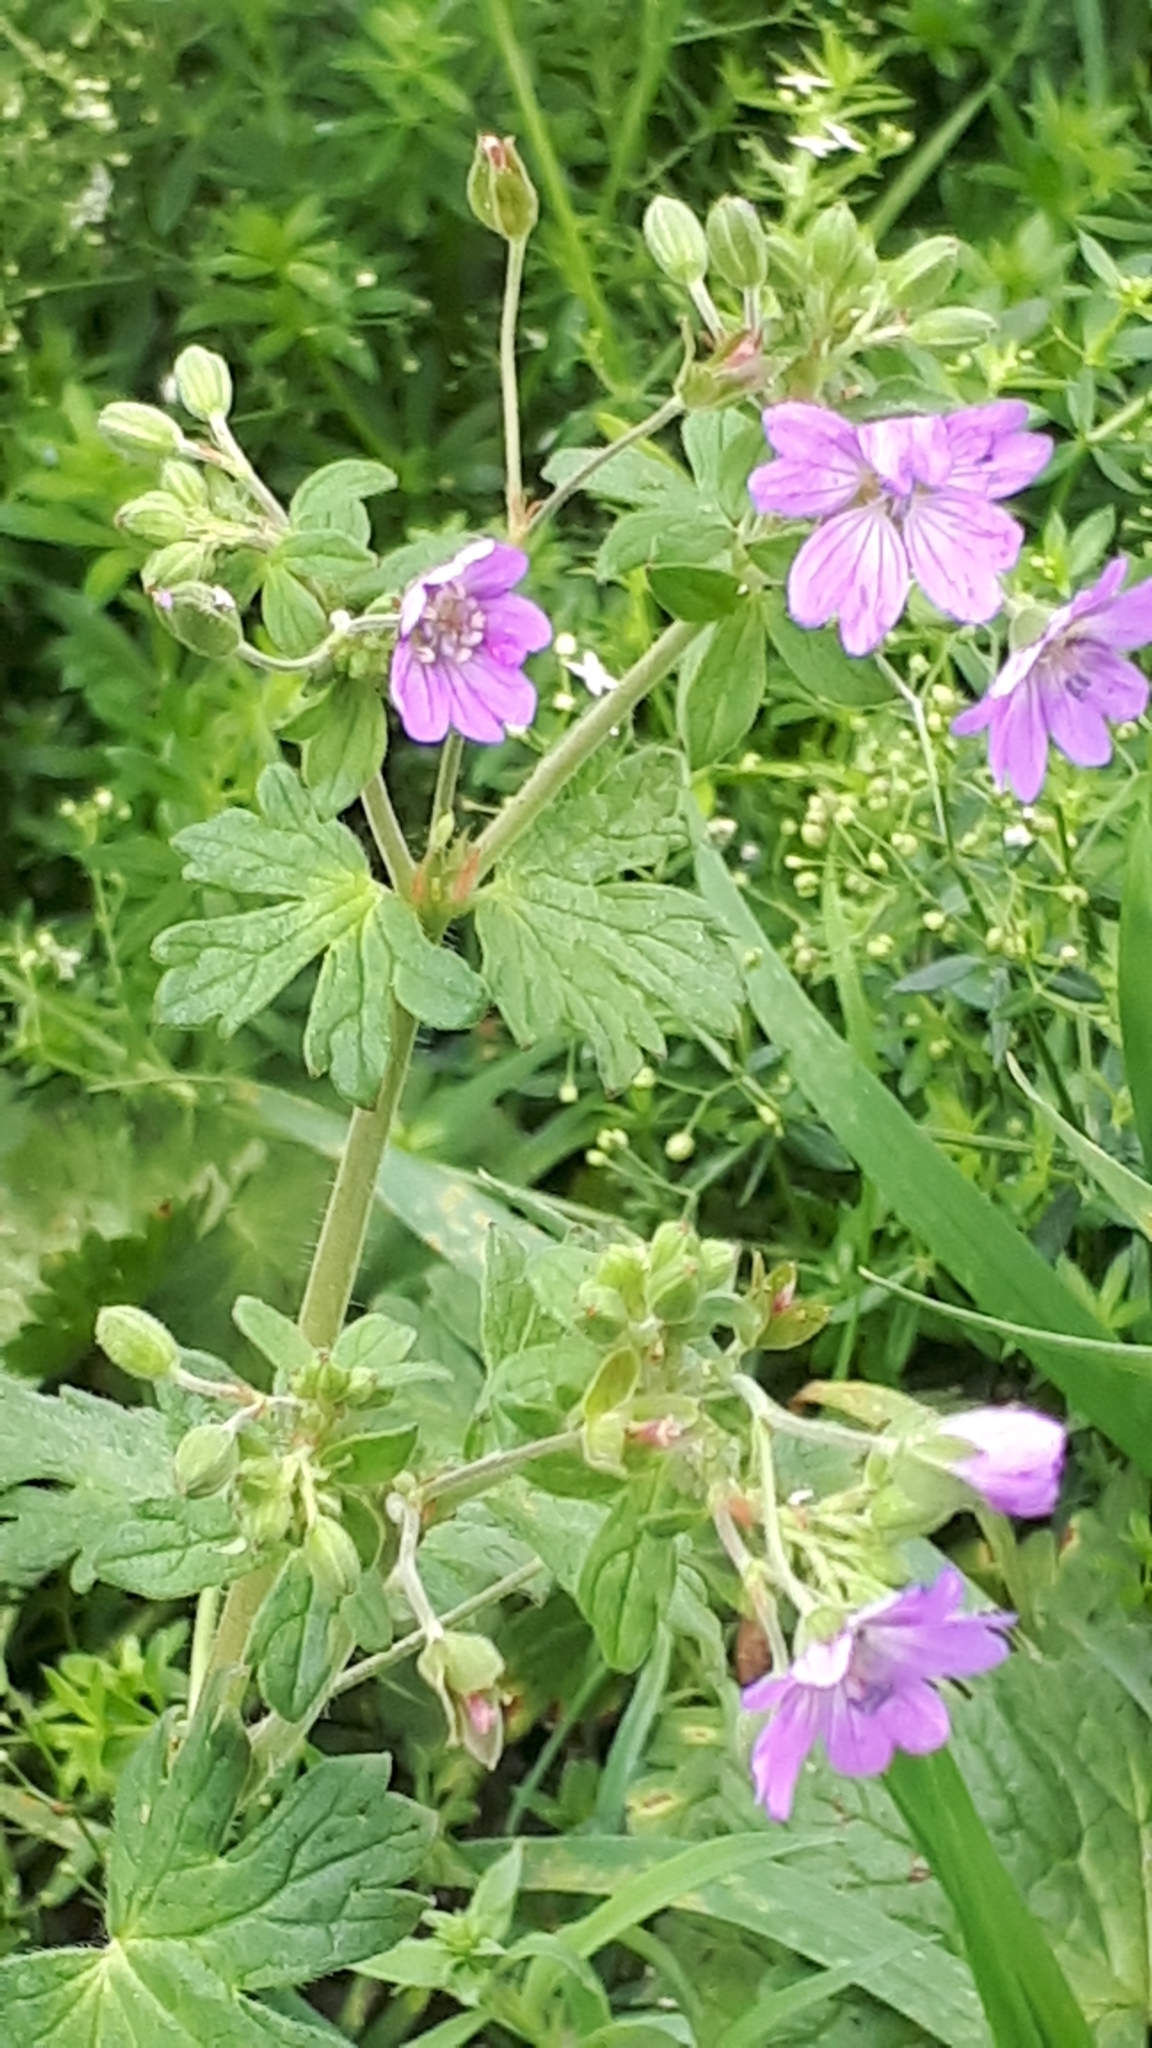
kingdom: Plantae
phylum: Tracheophyta
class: Magnoliopsida
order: Geraniales
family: Geraniaceae
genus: Geranium
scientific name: Geranium pyrenaicum
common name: Hedgerow crane's-bill
